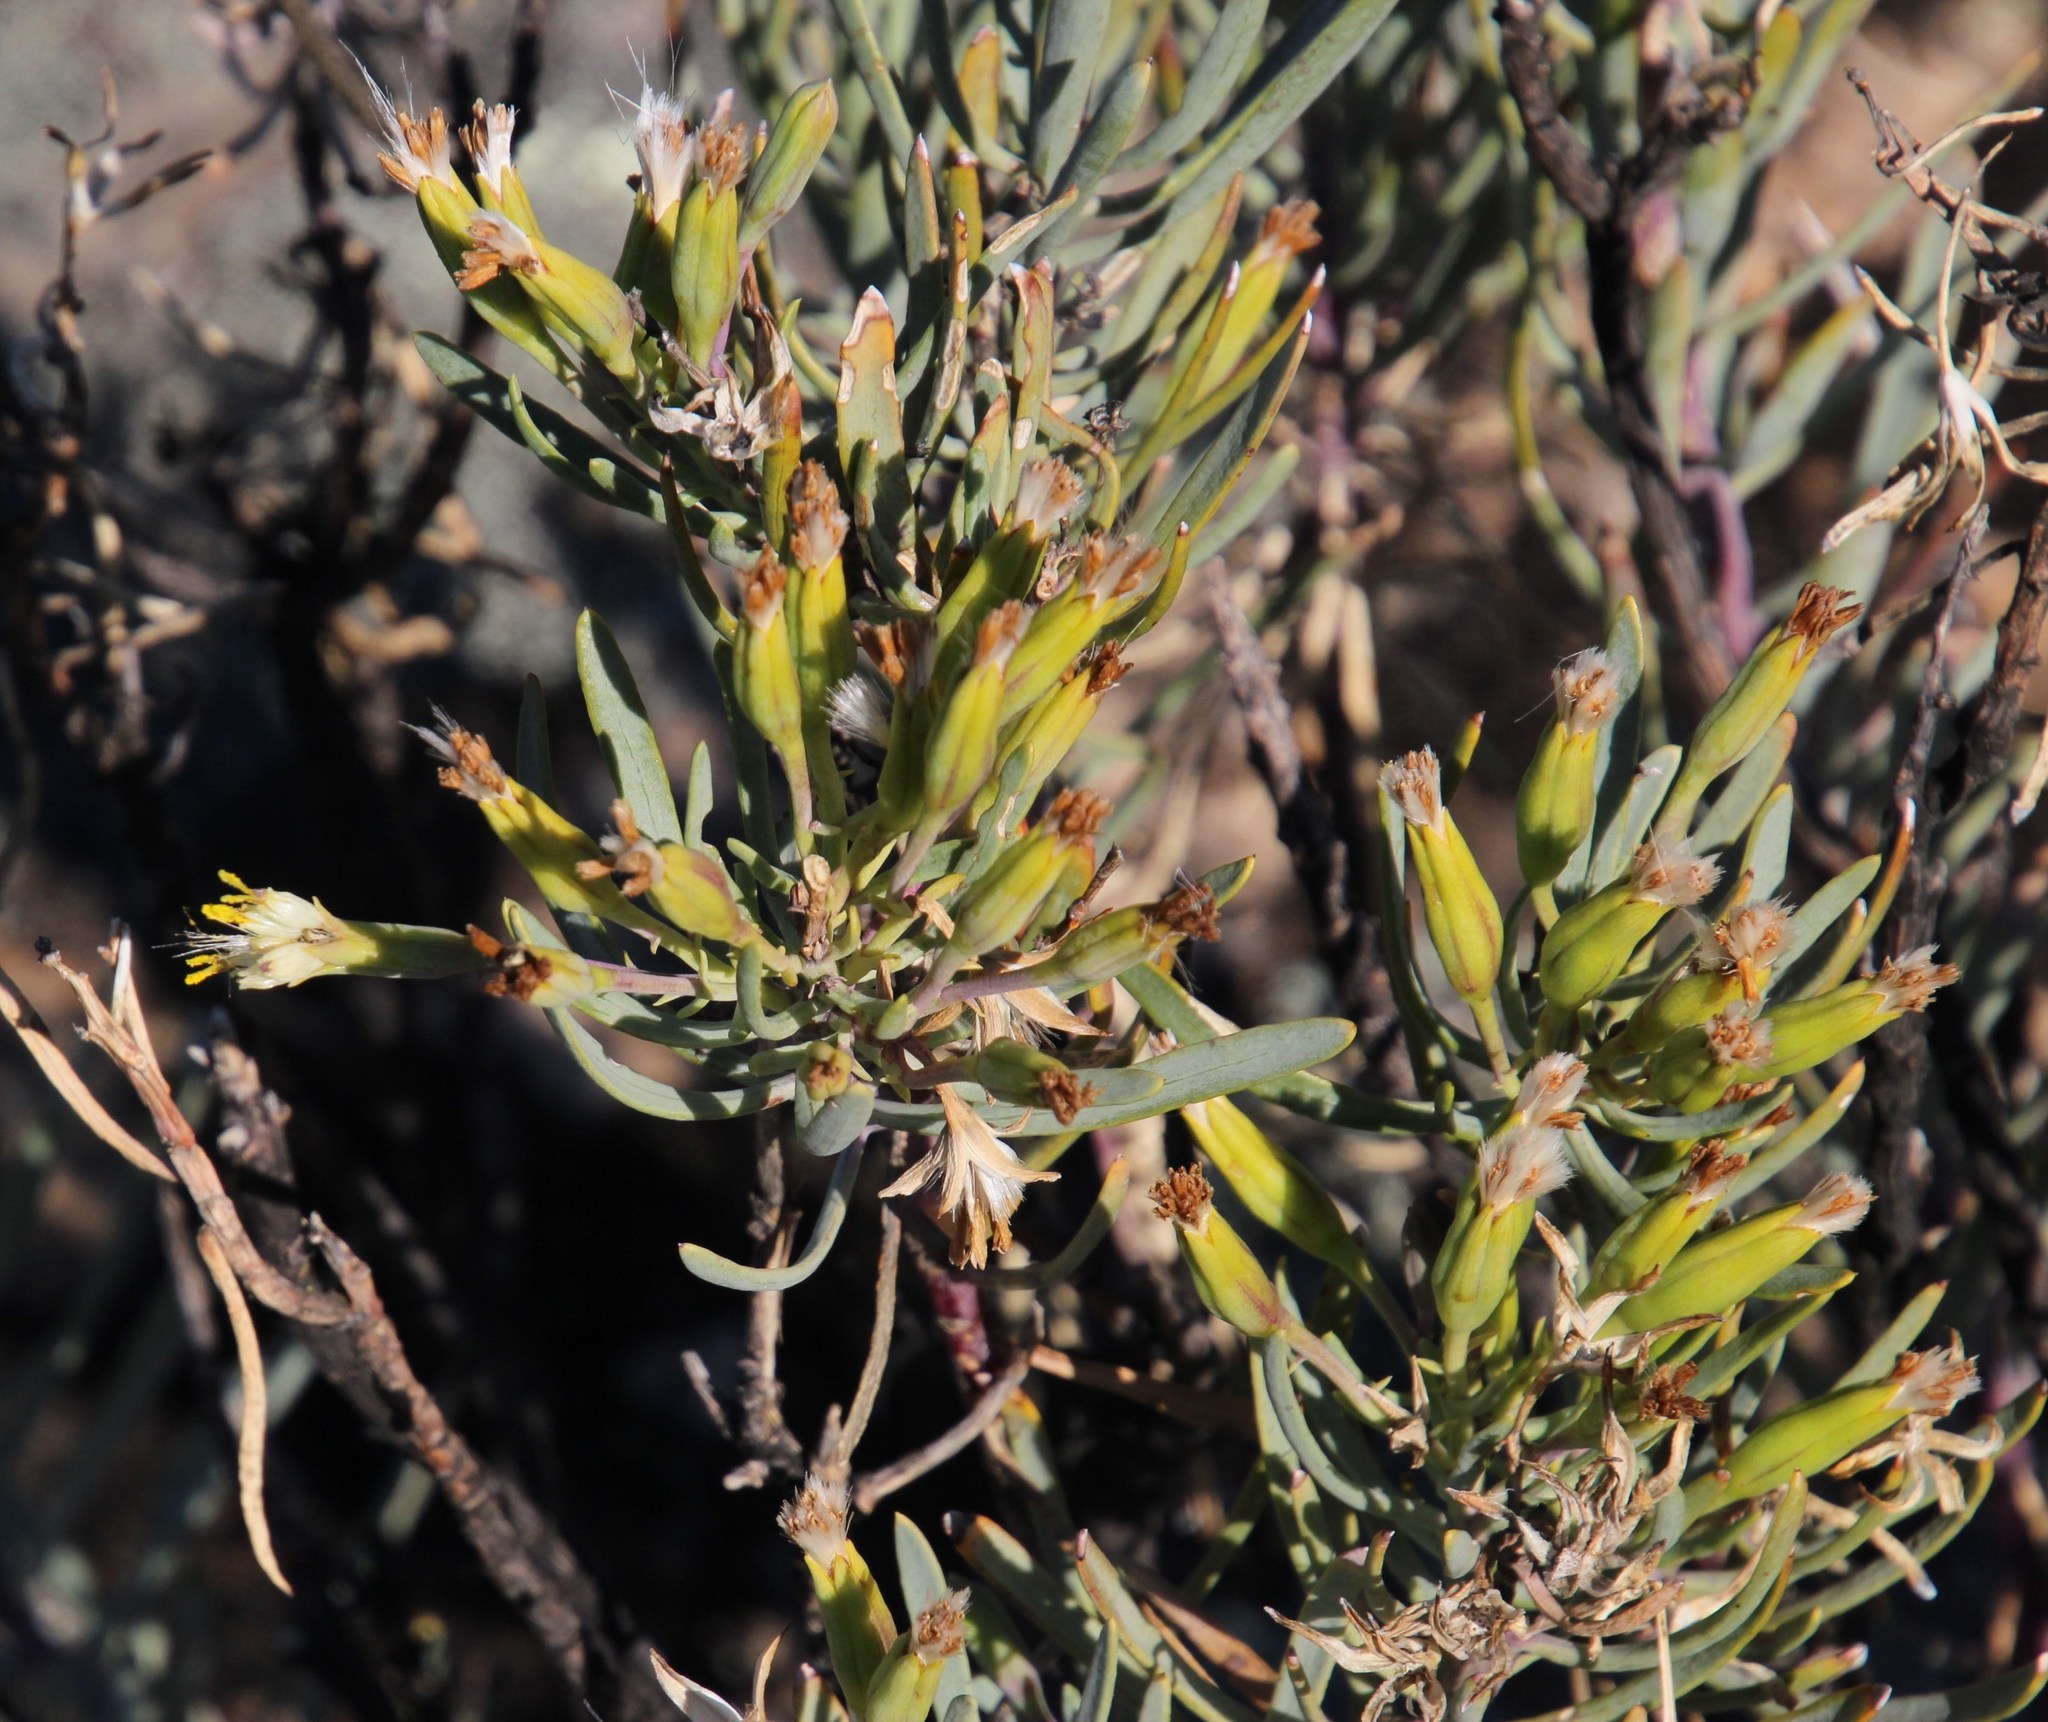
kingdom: Plantae
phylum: Tracheophyta
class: Magnoliopsida
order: Asterales
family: Asteraceae
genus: Lopholaena
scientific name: Lopholaena cneorifolia
